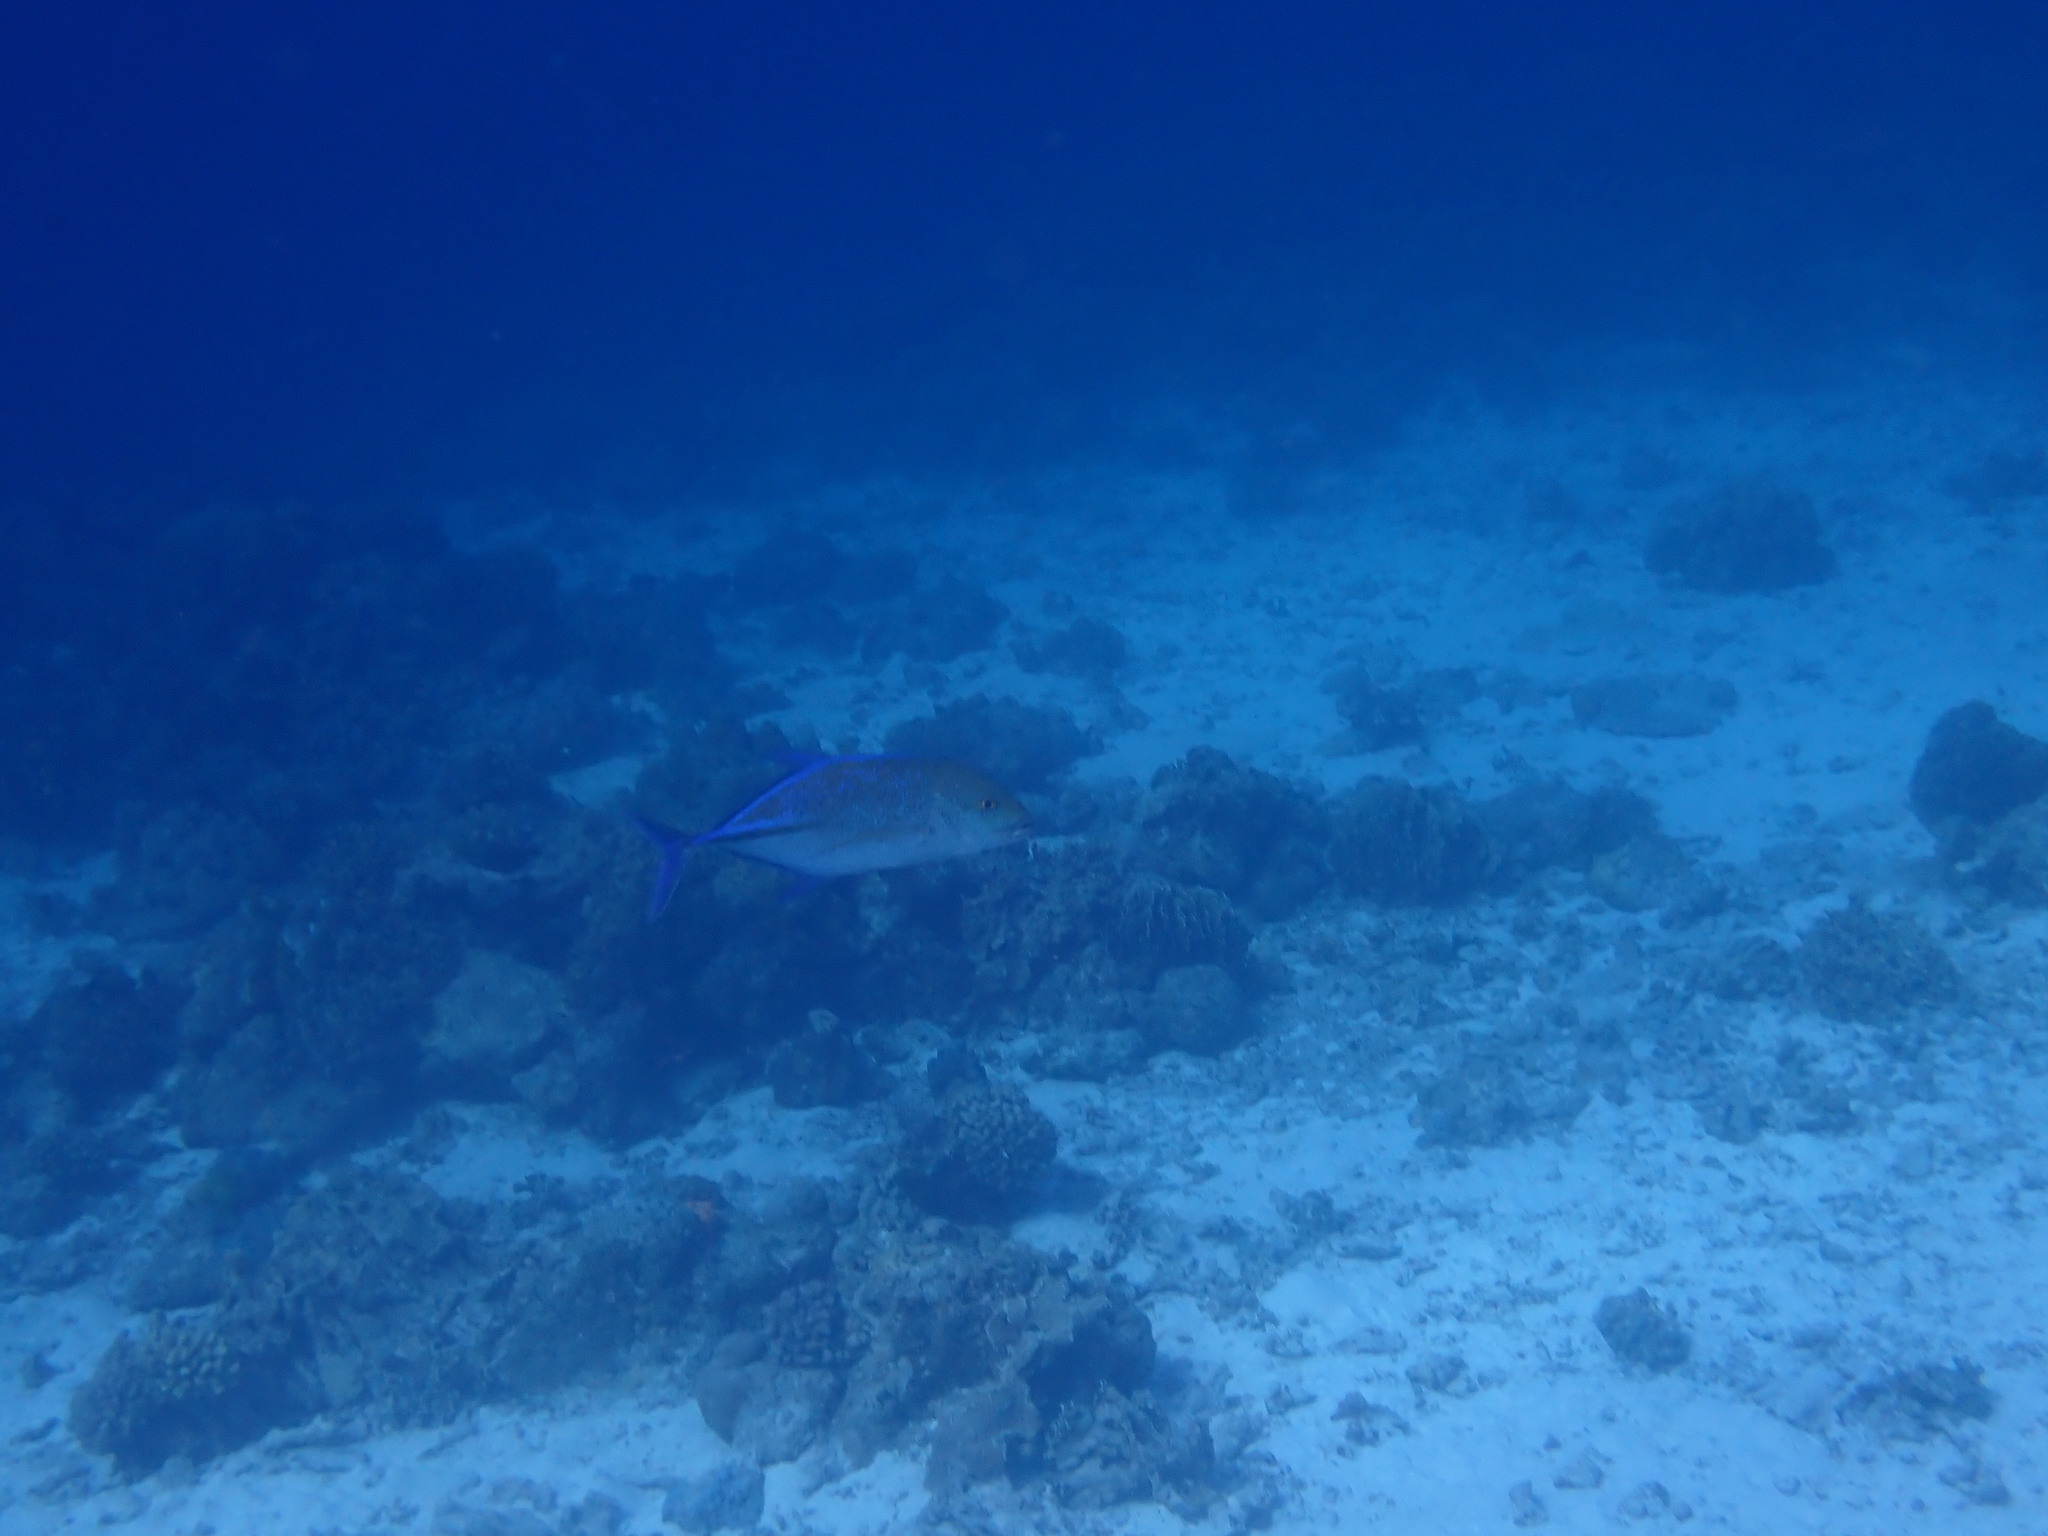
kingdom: Animalia
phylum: Chordata
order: Perciformes
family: Carangidae
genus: Caranx
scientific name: Caranx melampygus
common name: Bluefin trevally
